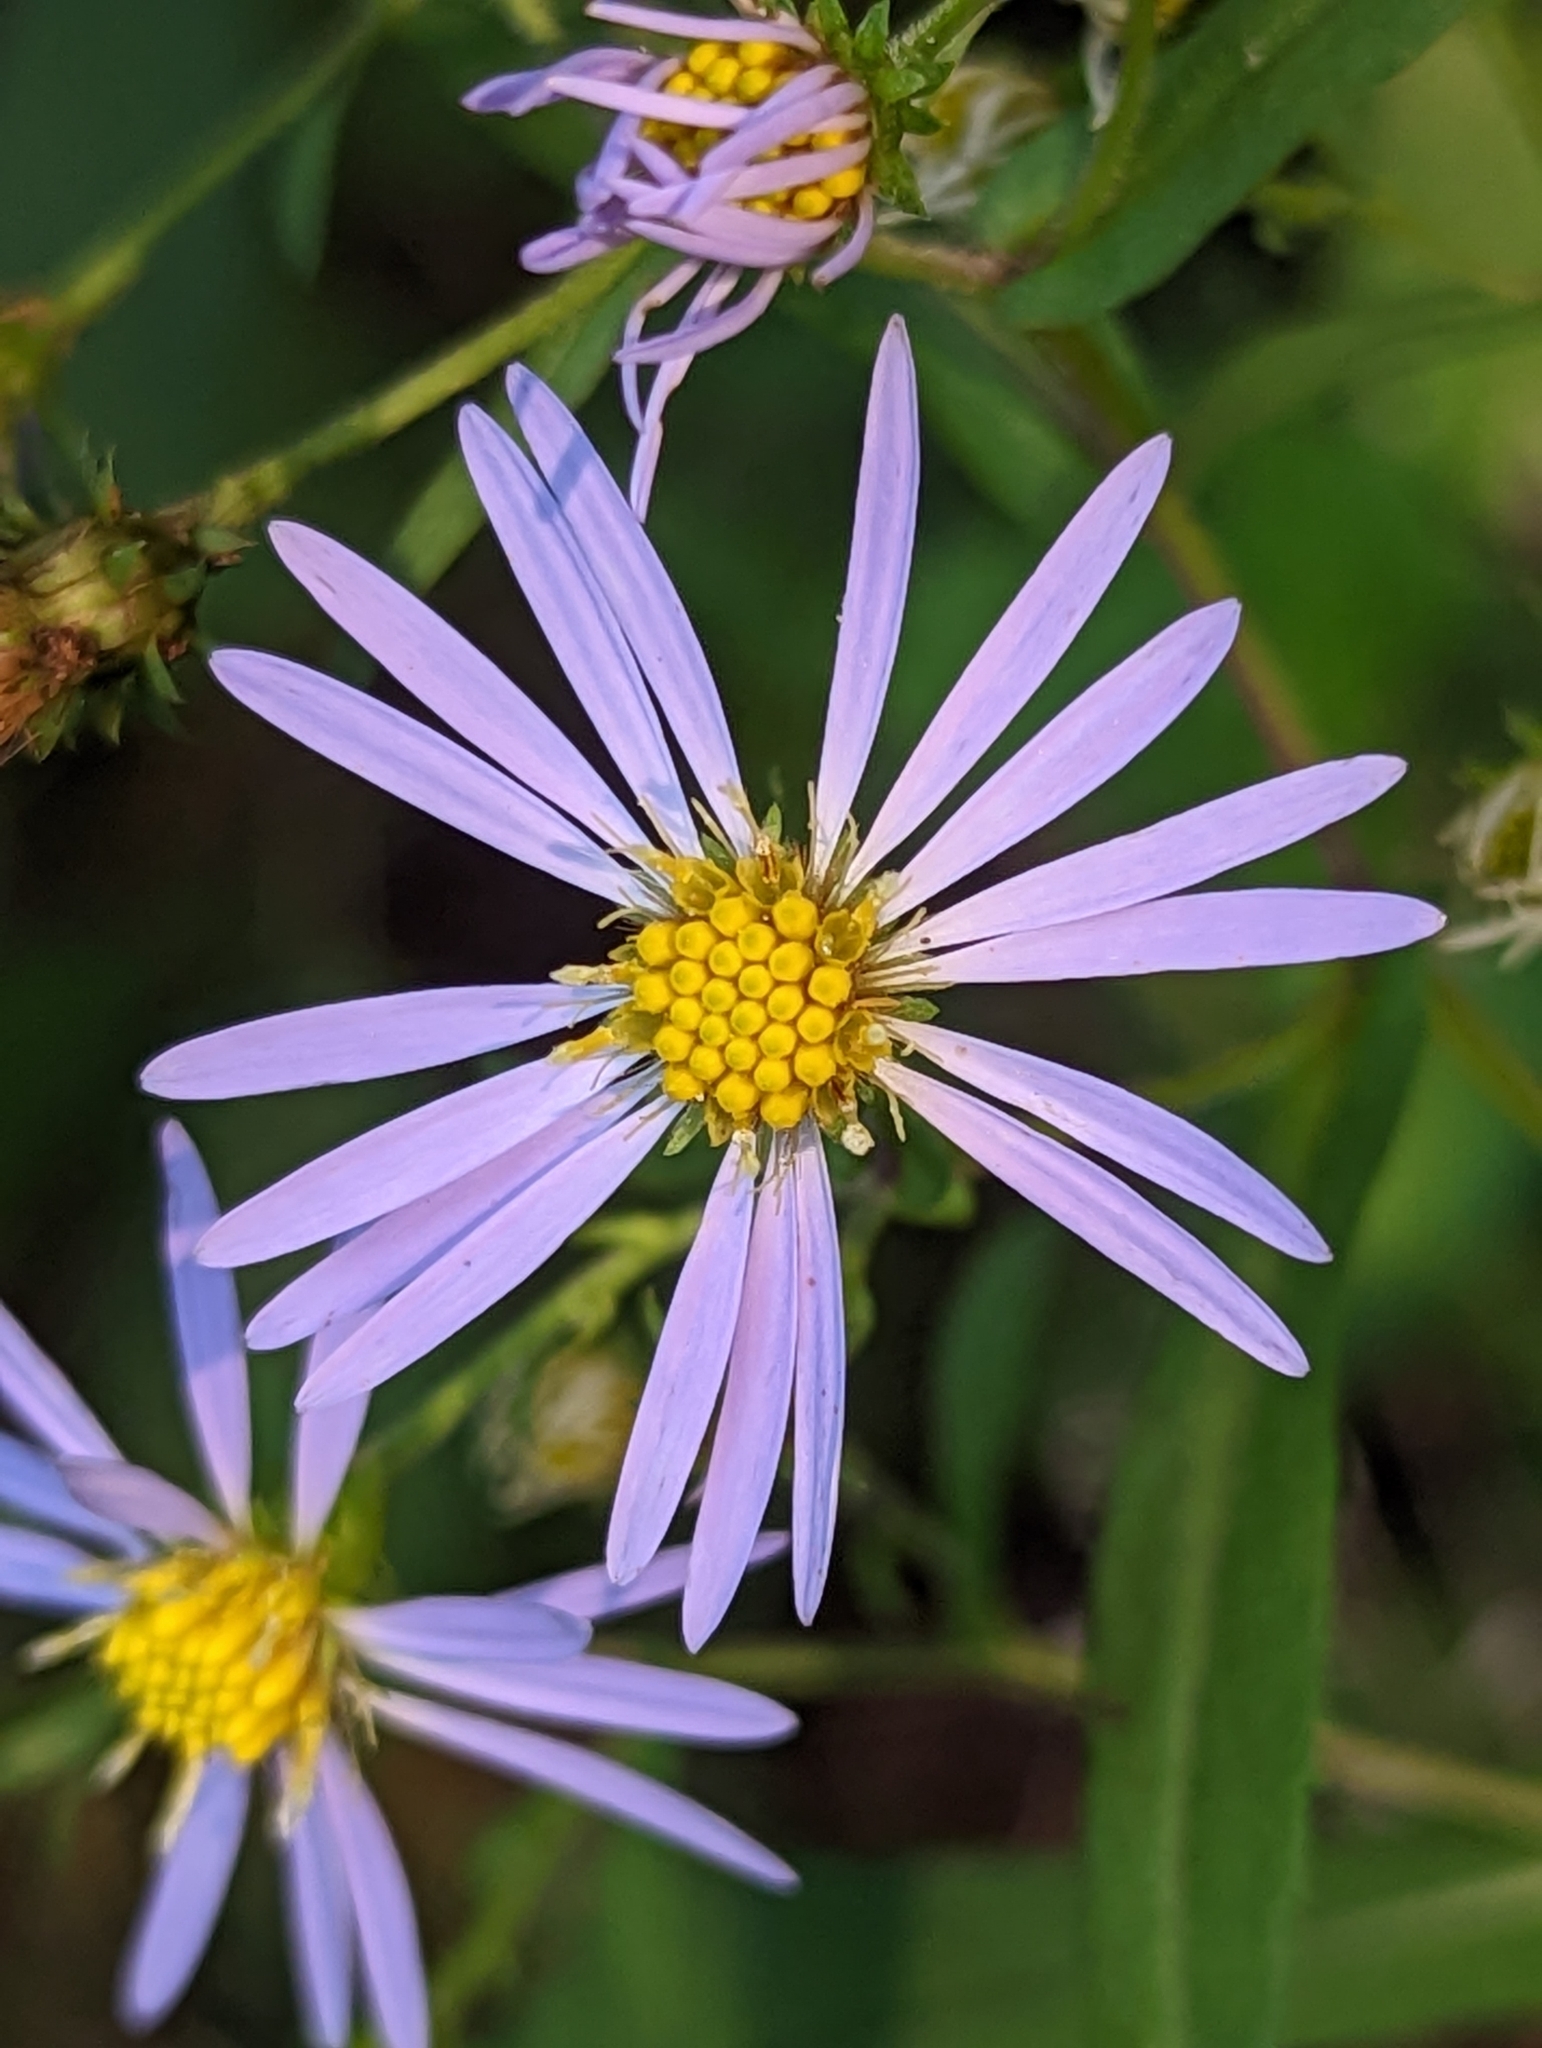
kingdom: Plantae
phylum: Tracheophyta
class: Magnoliopsida
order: Asterales
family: Asteraceae
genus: Symphyotrichum
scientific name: Symphyotrichum prenanthoides
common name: Crooked-stem aster
